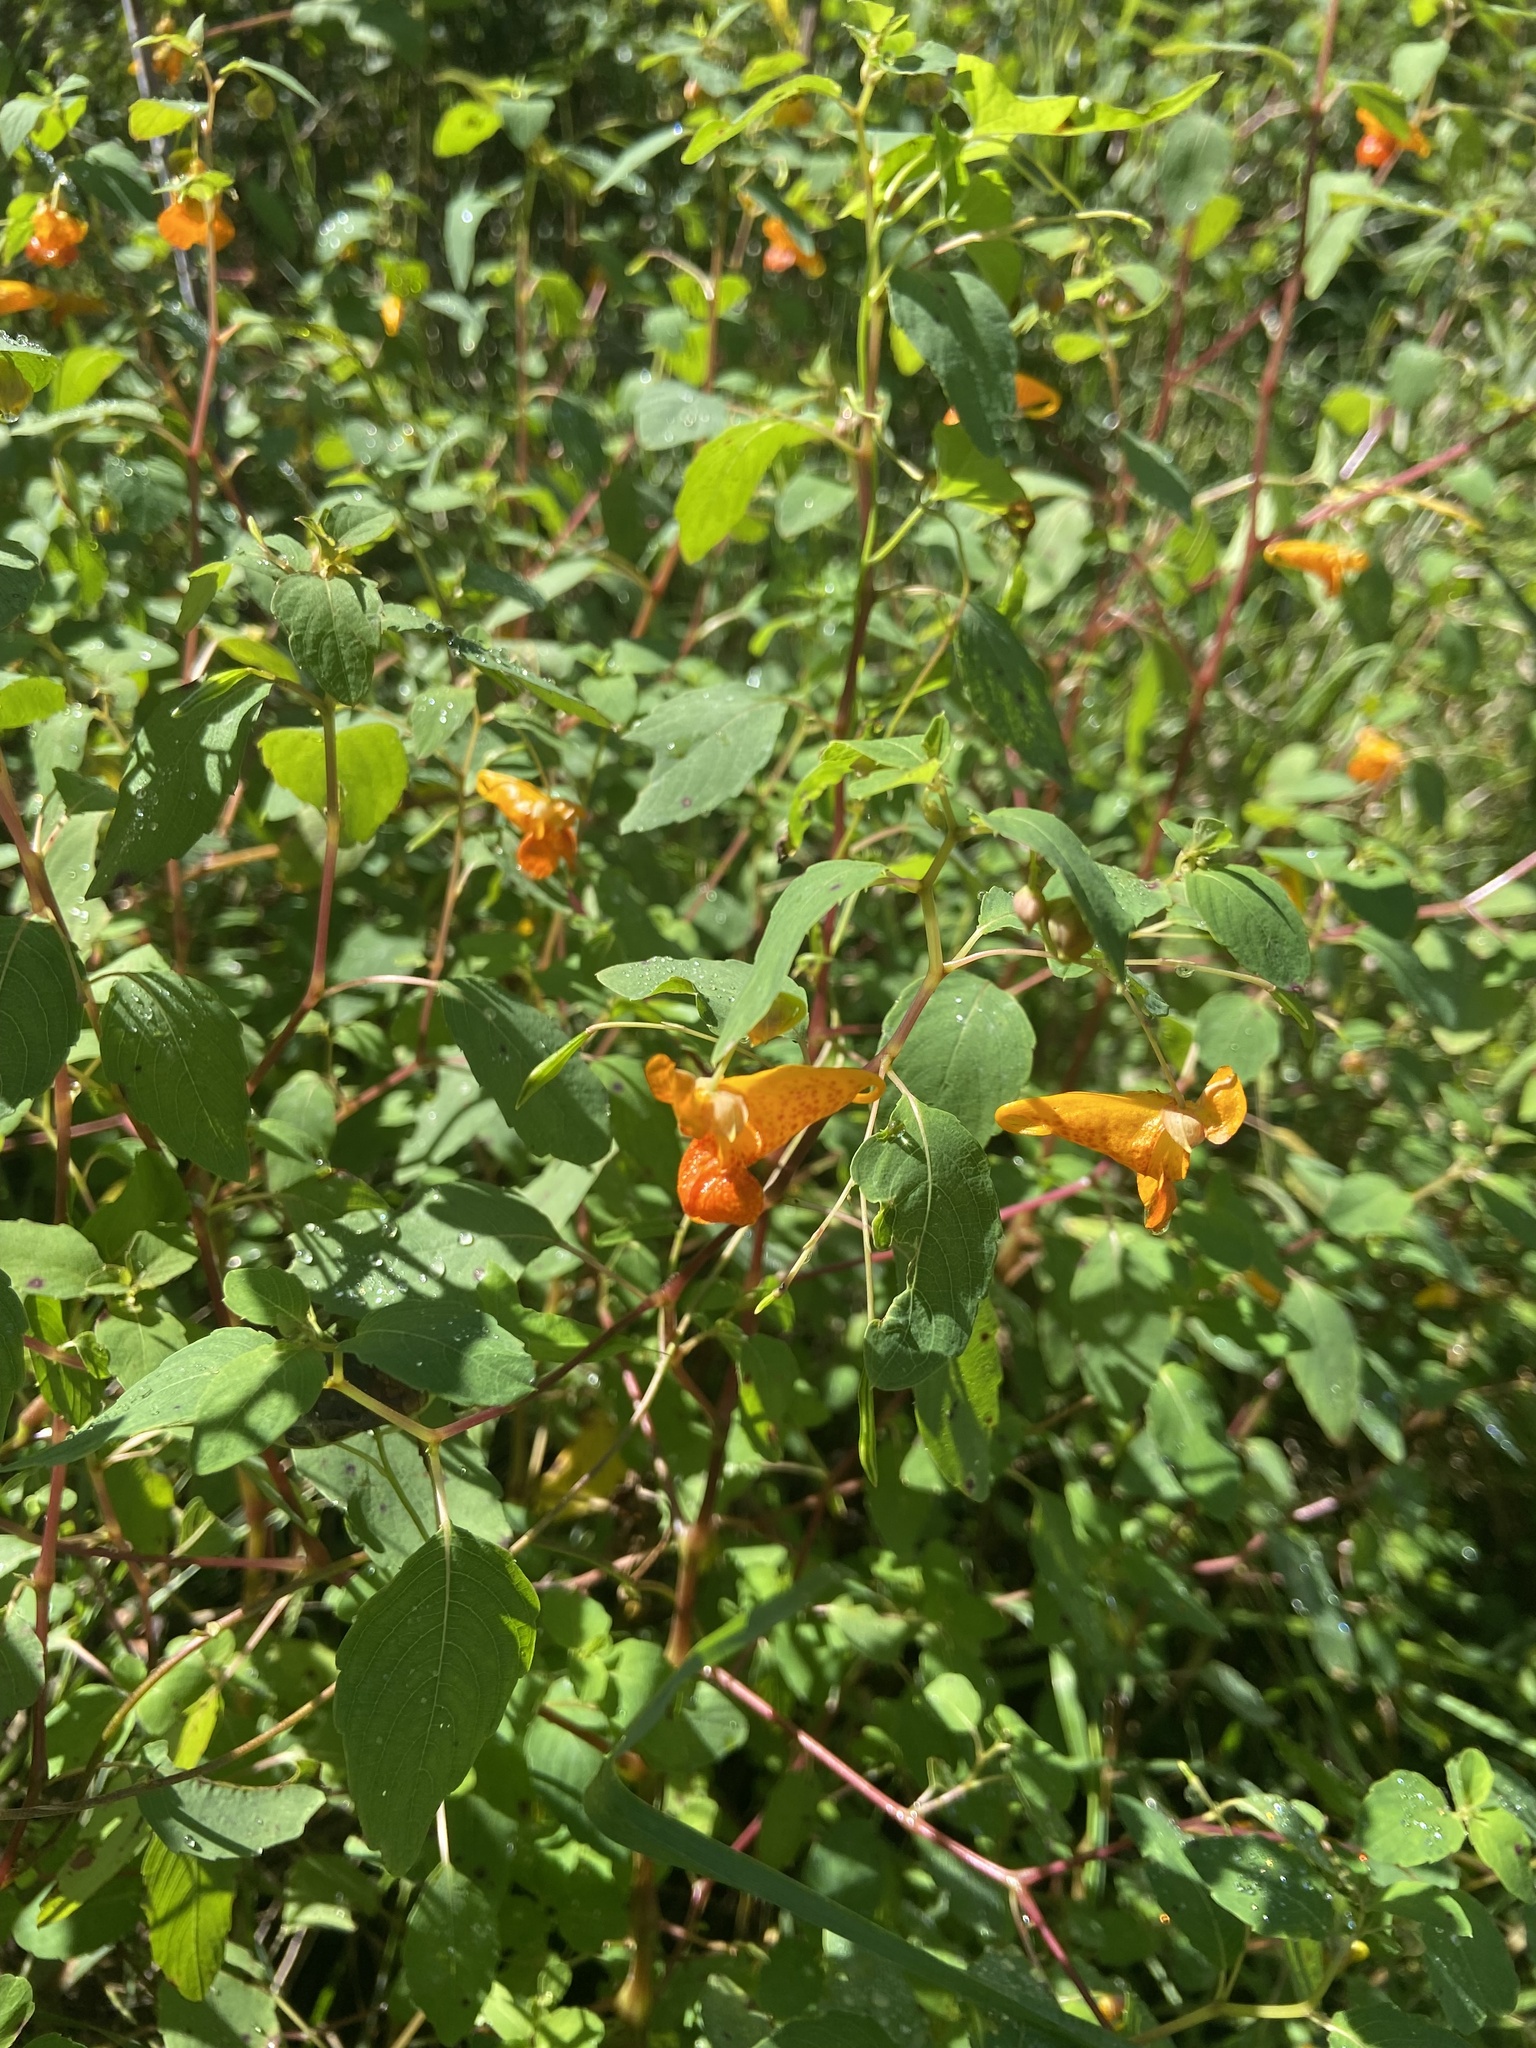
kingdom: Plantae
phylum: Tracheophyta
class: Magnoliopsida
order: Ericales
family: Balsaminaceae
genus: Impatiens
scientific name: Impatiens capensis
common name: Orange balsam
